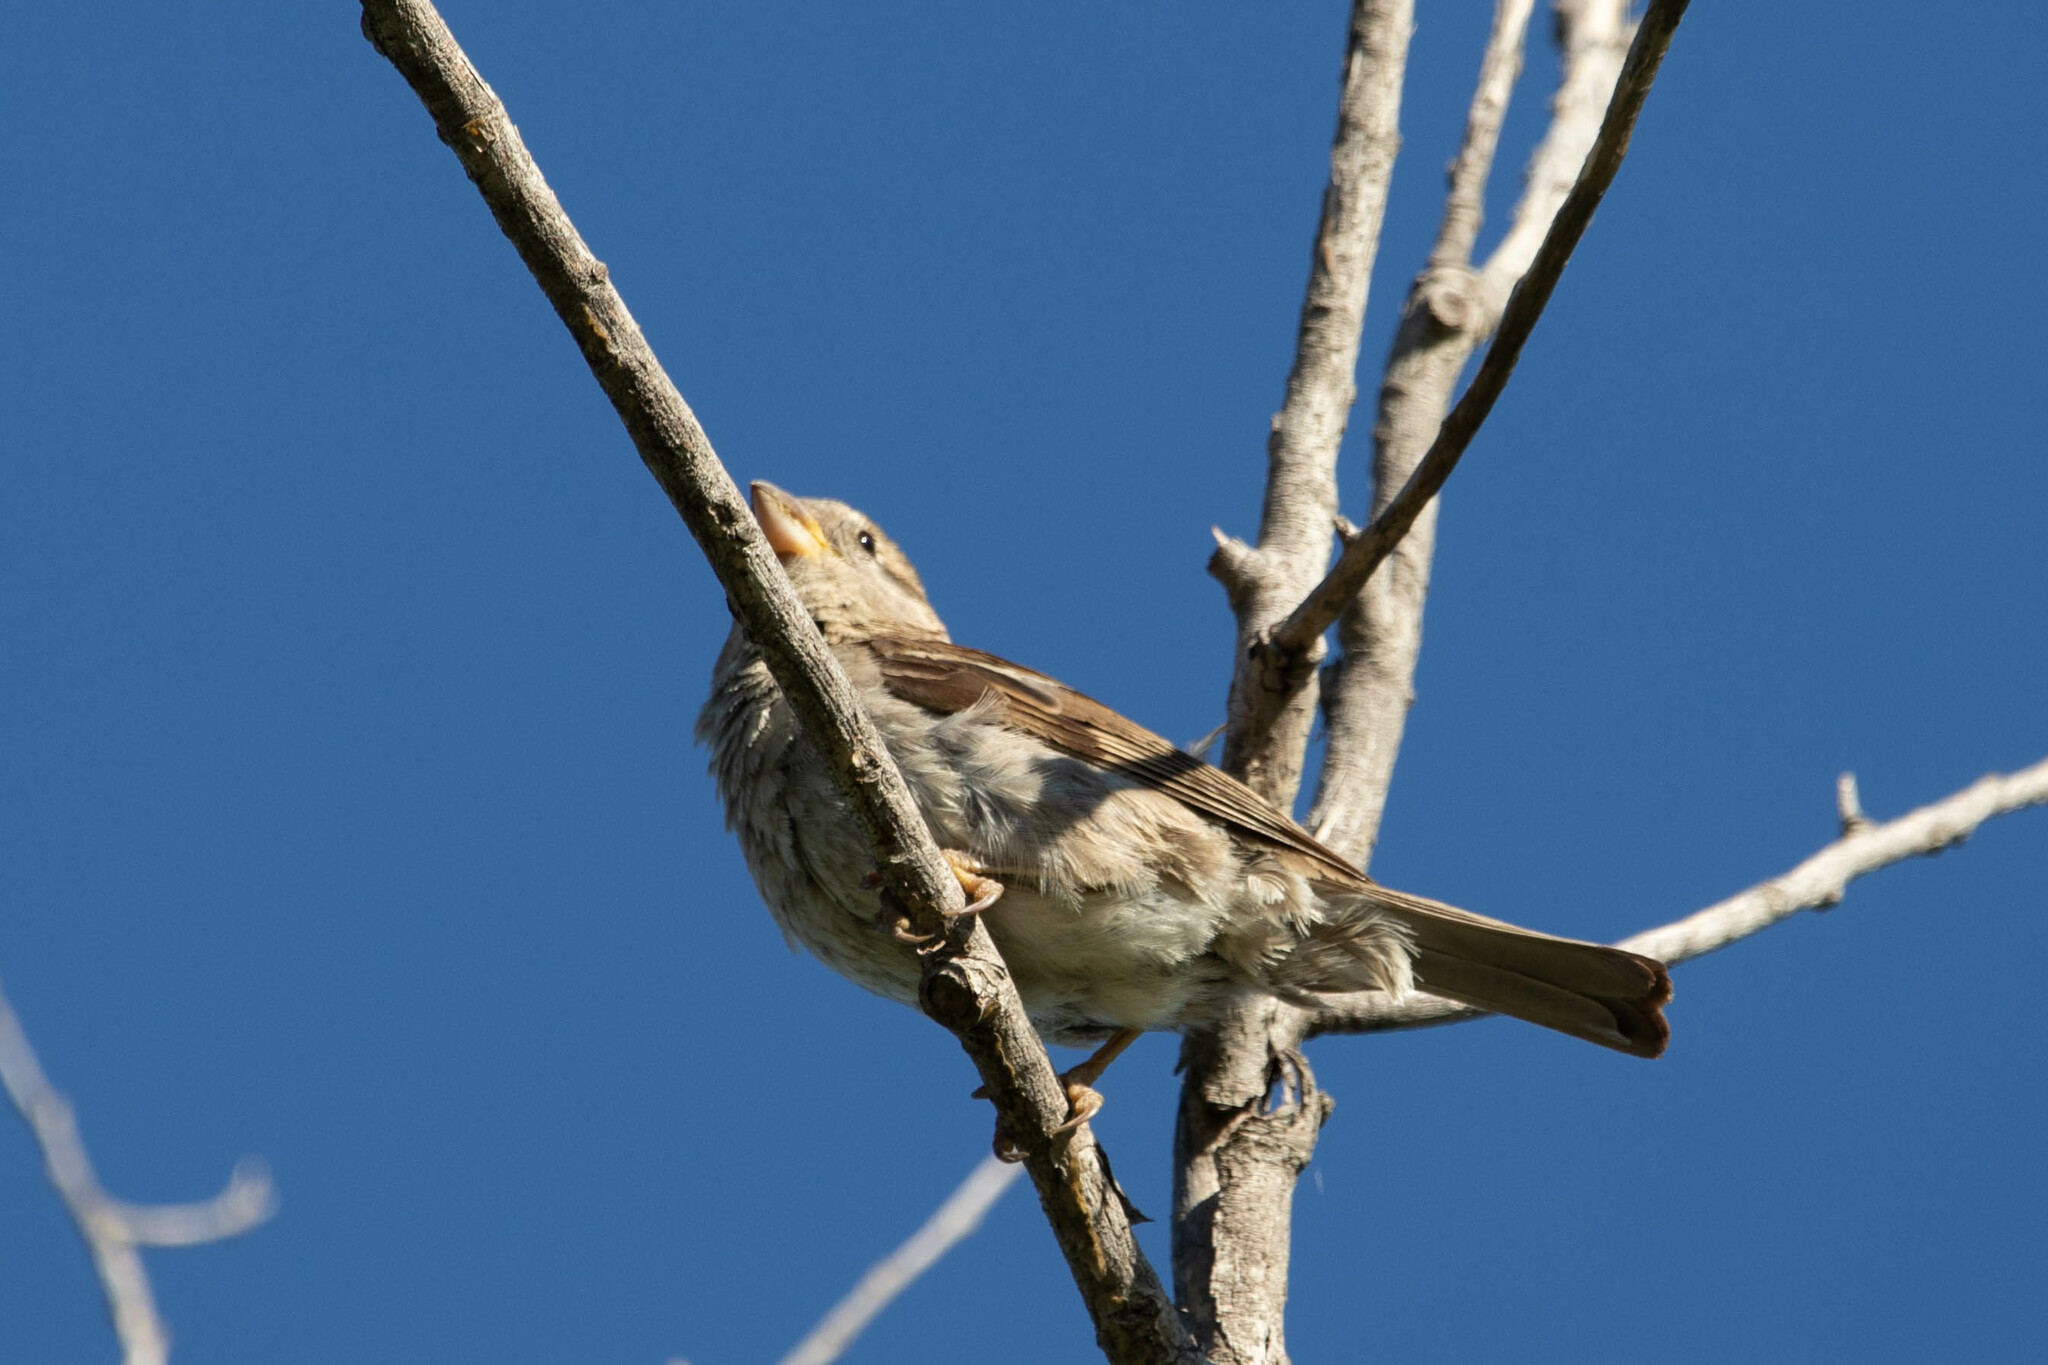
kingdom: Animalia
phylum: Chordata
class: Aves
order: Passeriformes
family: Passeridae
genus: Passer
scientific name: Passer domesticus
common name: House sparrow
